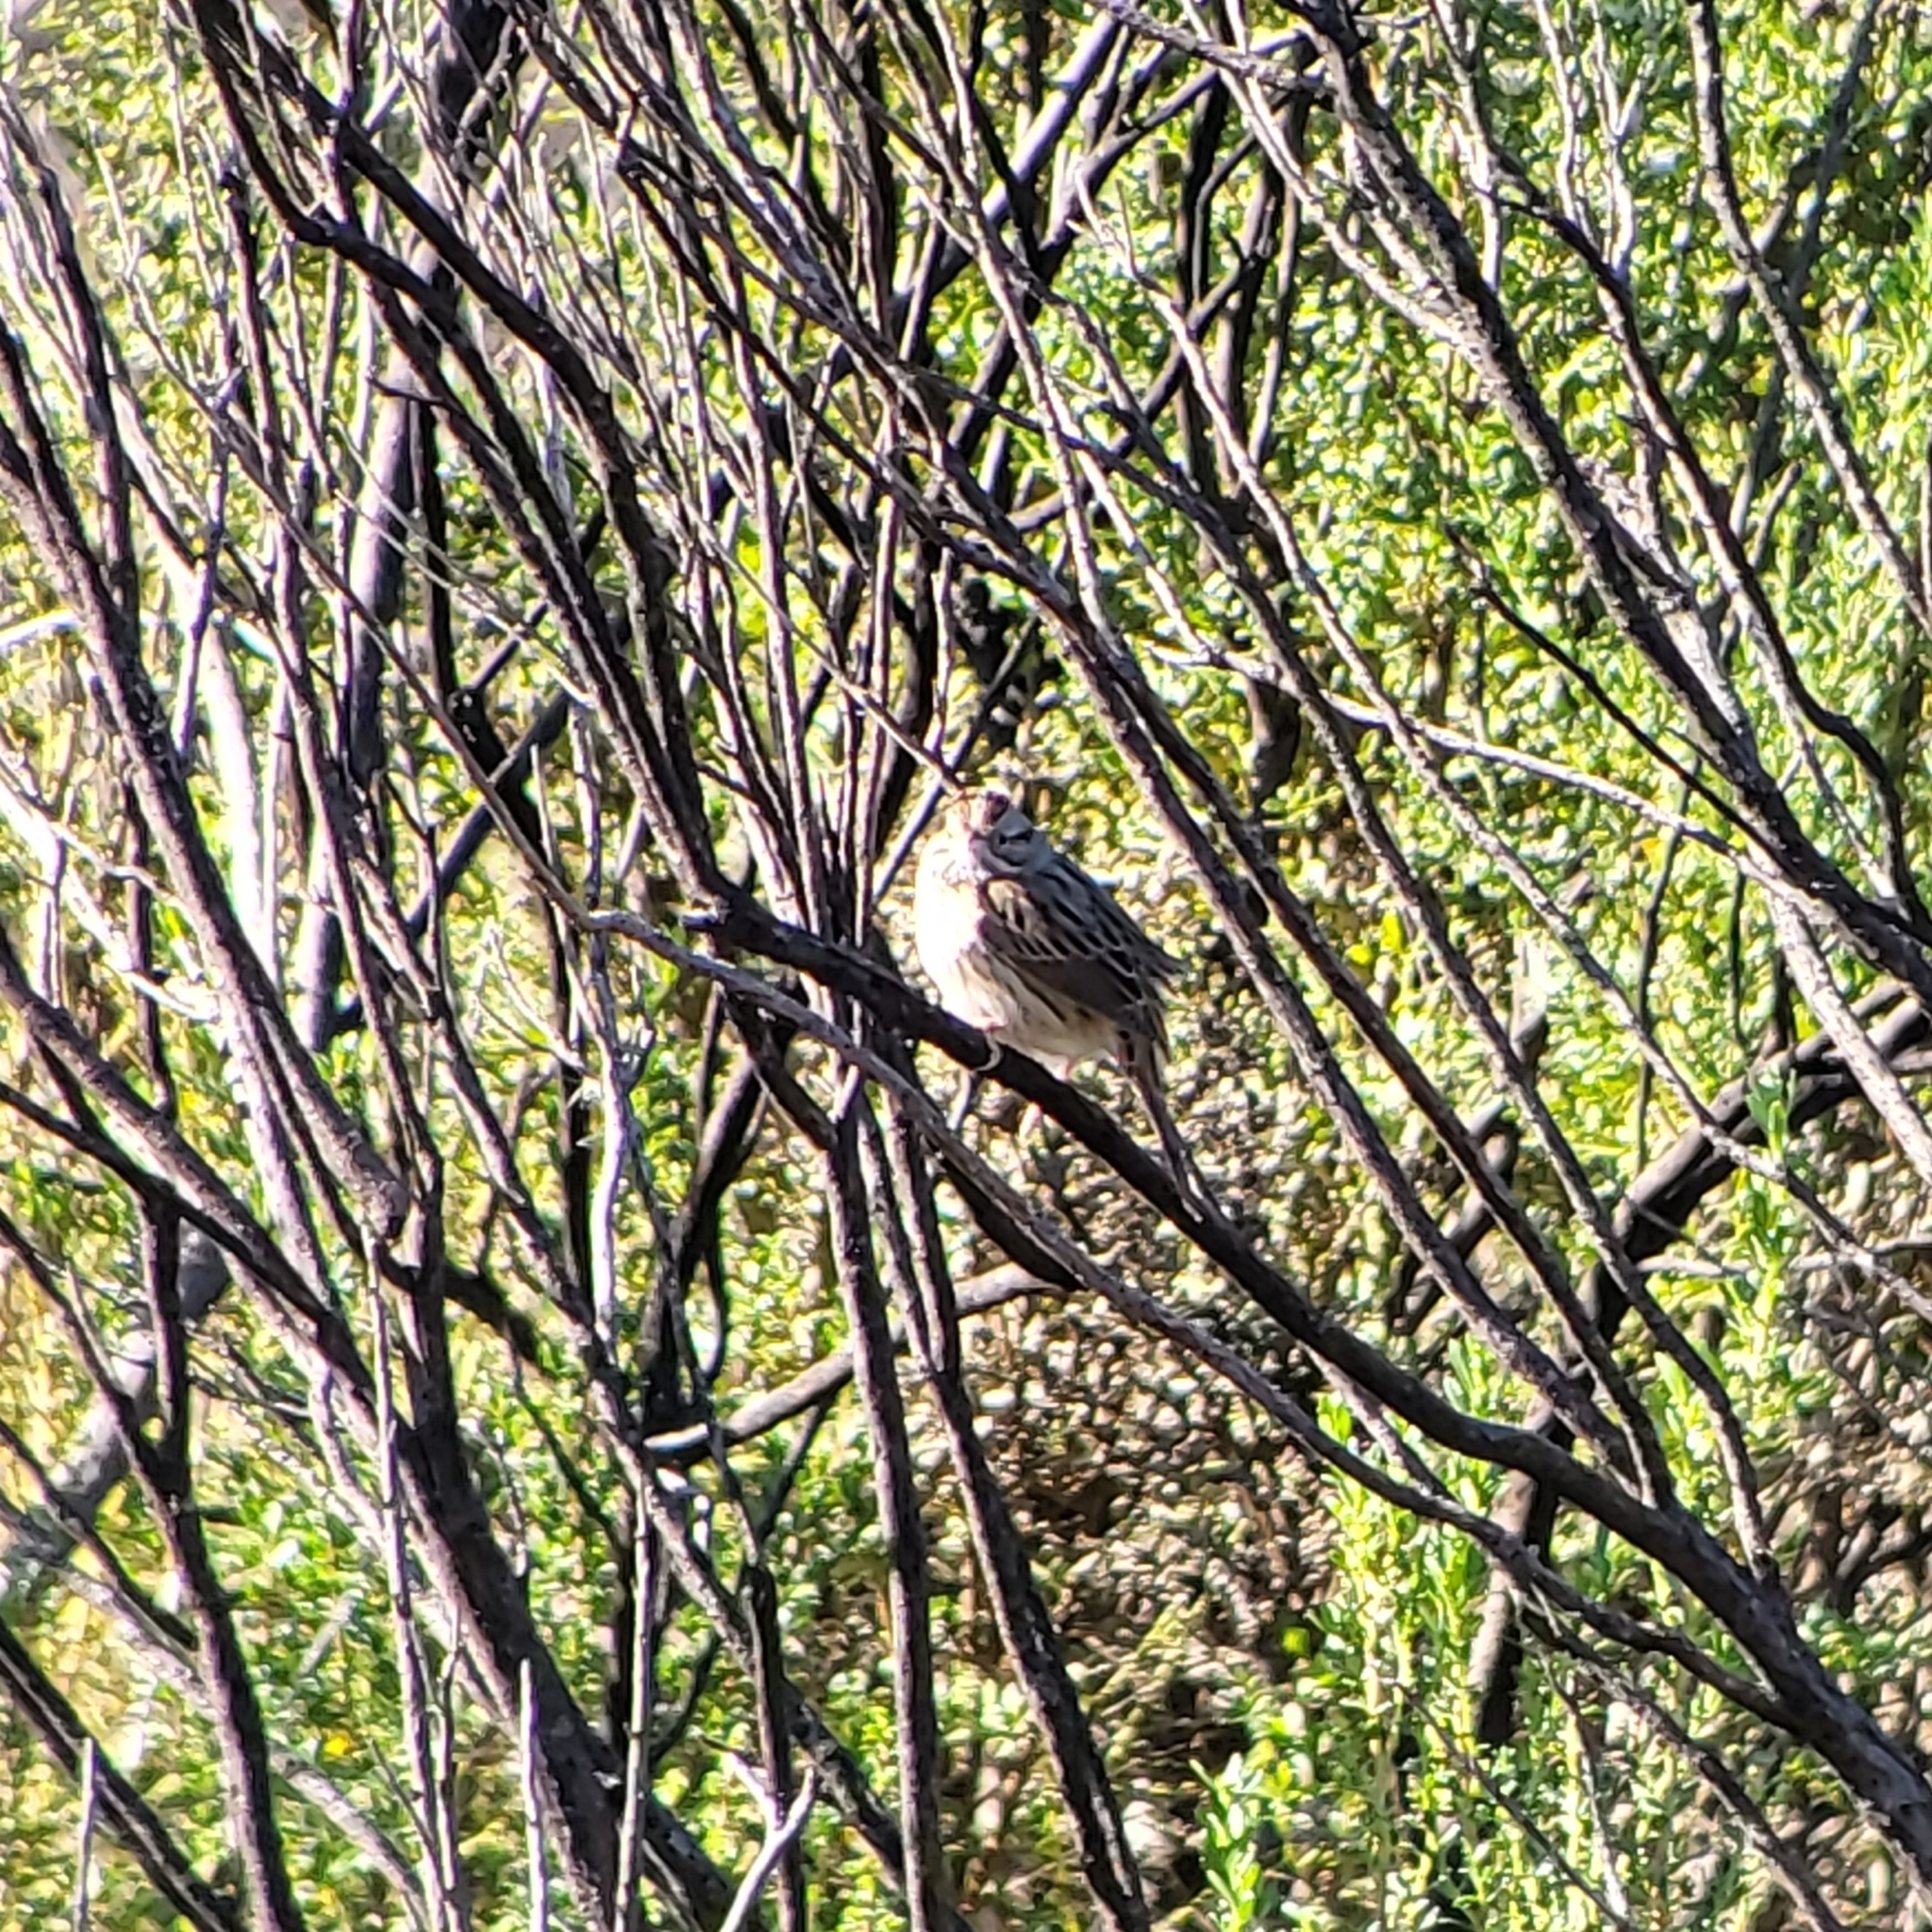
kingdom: Animalia
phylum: Chordata
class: Aves
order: Passeriformes
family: Passerellidae
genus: Melospiza
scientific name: Melospiza melodia
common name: Song sparrow
